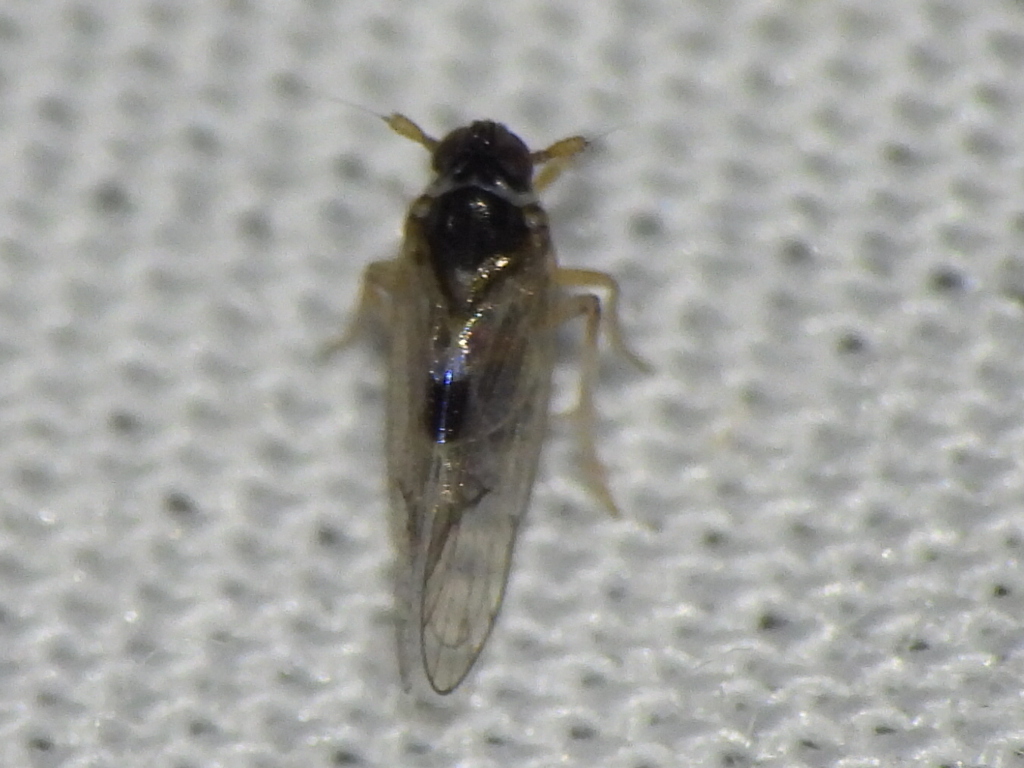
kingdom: Animalia
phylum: Arthropoda
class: Insecta
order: Hemiptera
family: Delphacidae
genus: Chionomus
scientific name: Chionomus
